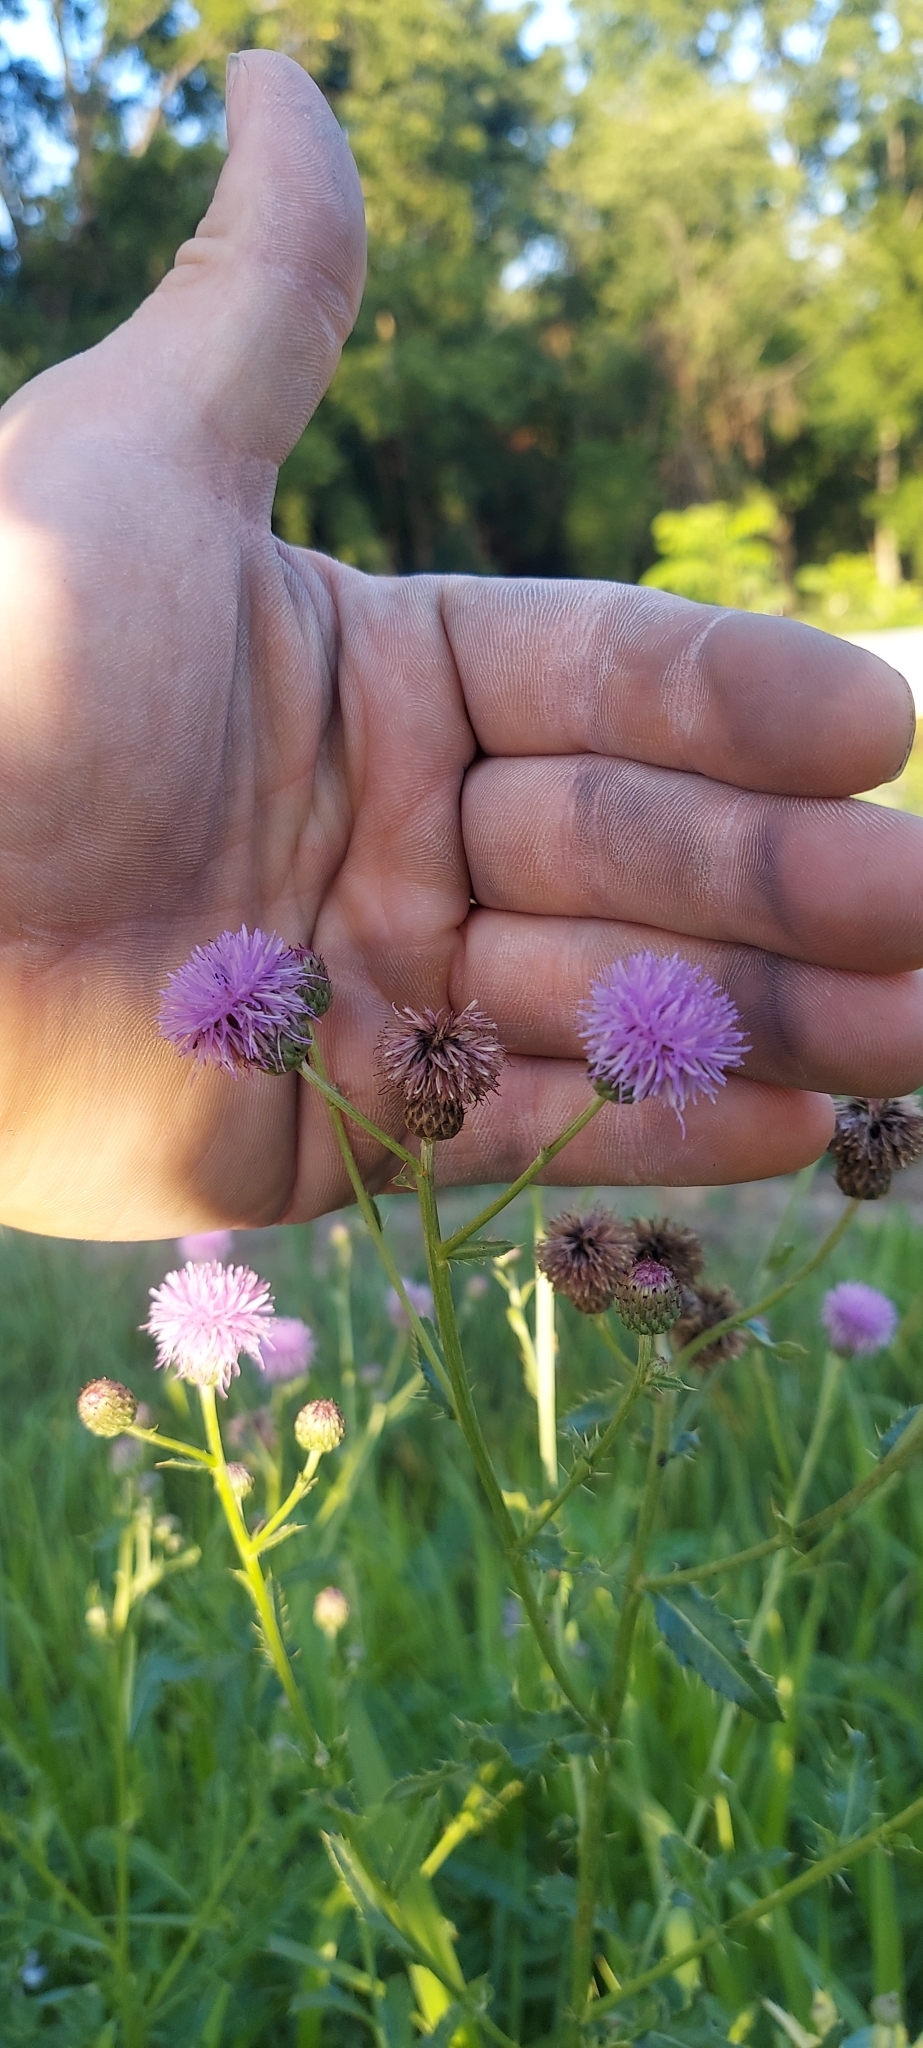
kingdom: Plantae
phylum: Tracheophyta
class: Magnoliopsida
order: Asterales
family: Asteraceae
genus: Cirsium
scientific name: Cirsium arvense
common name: Creeping thistle
